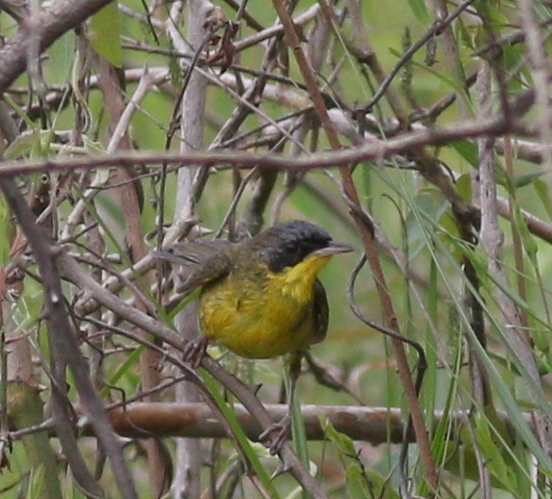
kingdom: Animalia
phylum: Chordata
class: Aves
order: Passeriformes
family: Parulidae
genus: Geothlypis
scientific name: Geothlypis velata
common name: Southern yellowthroat
